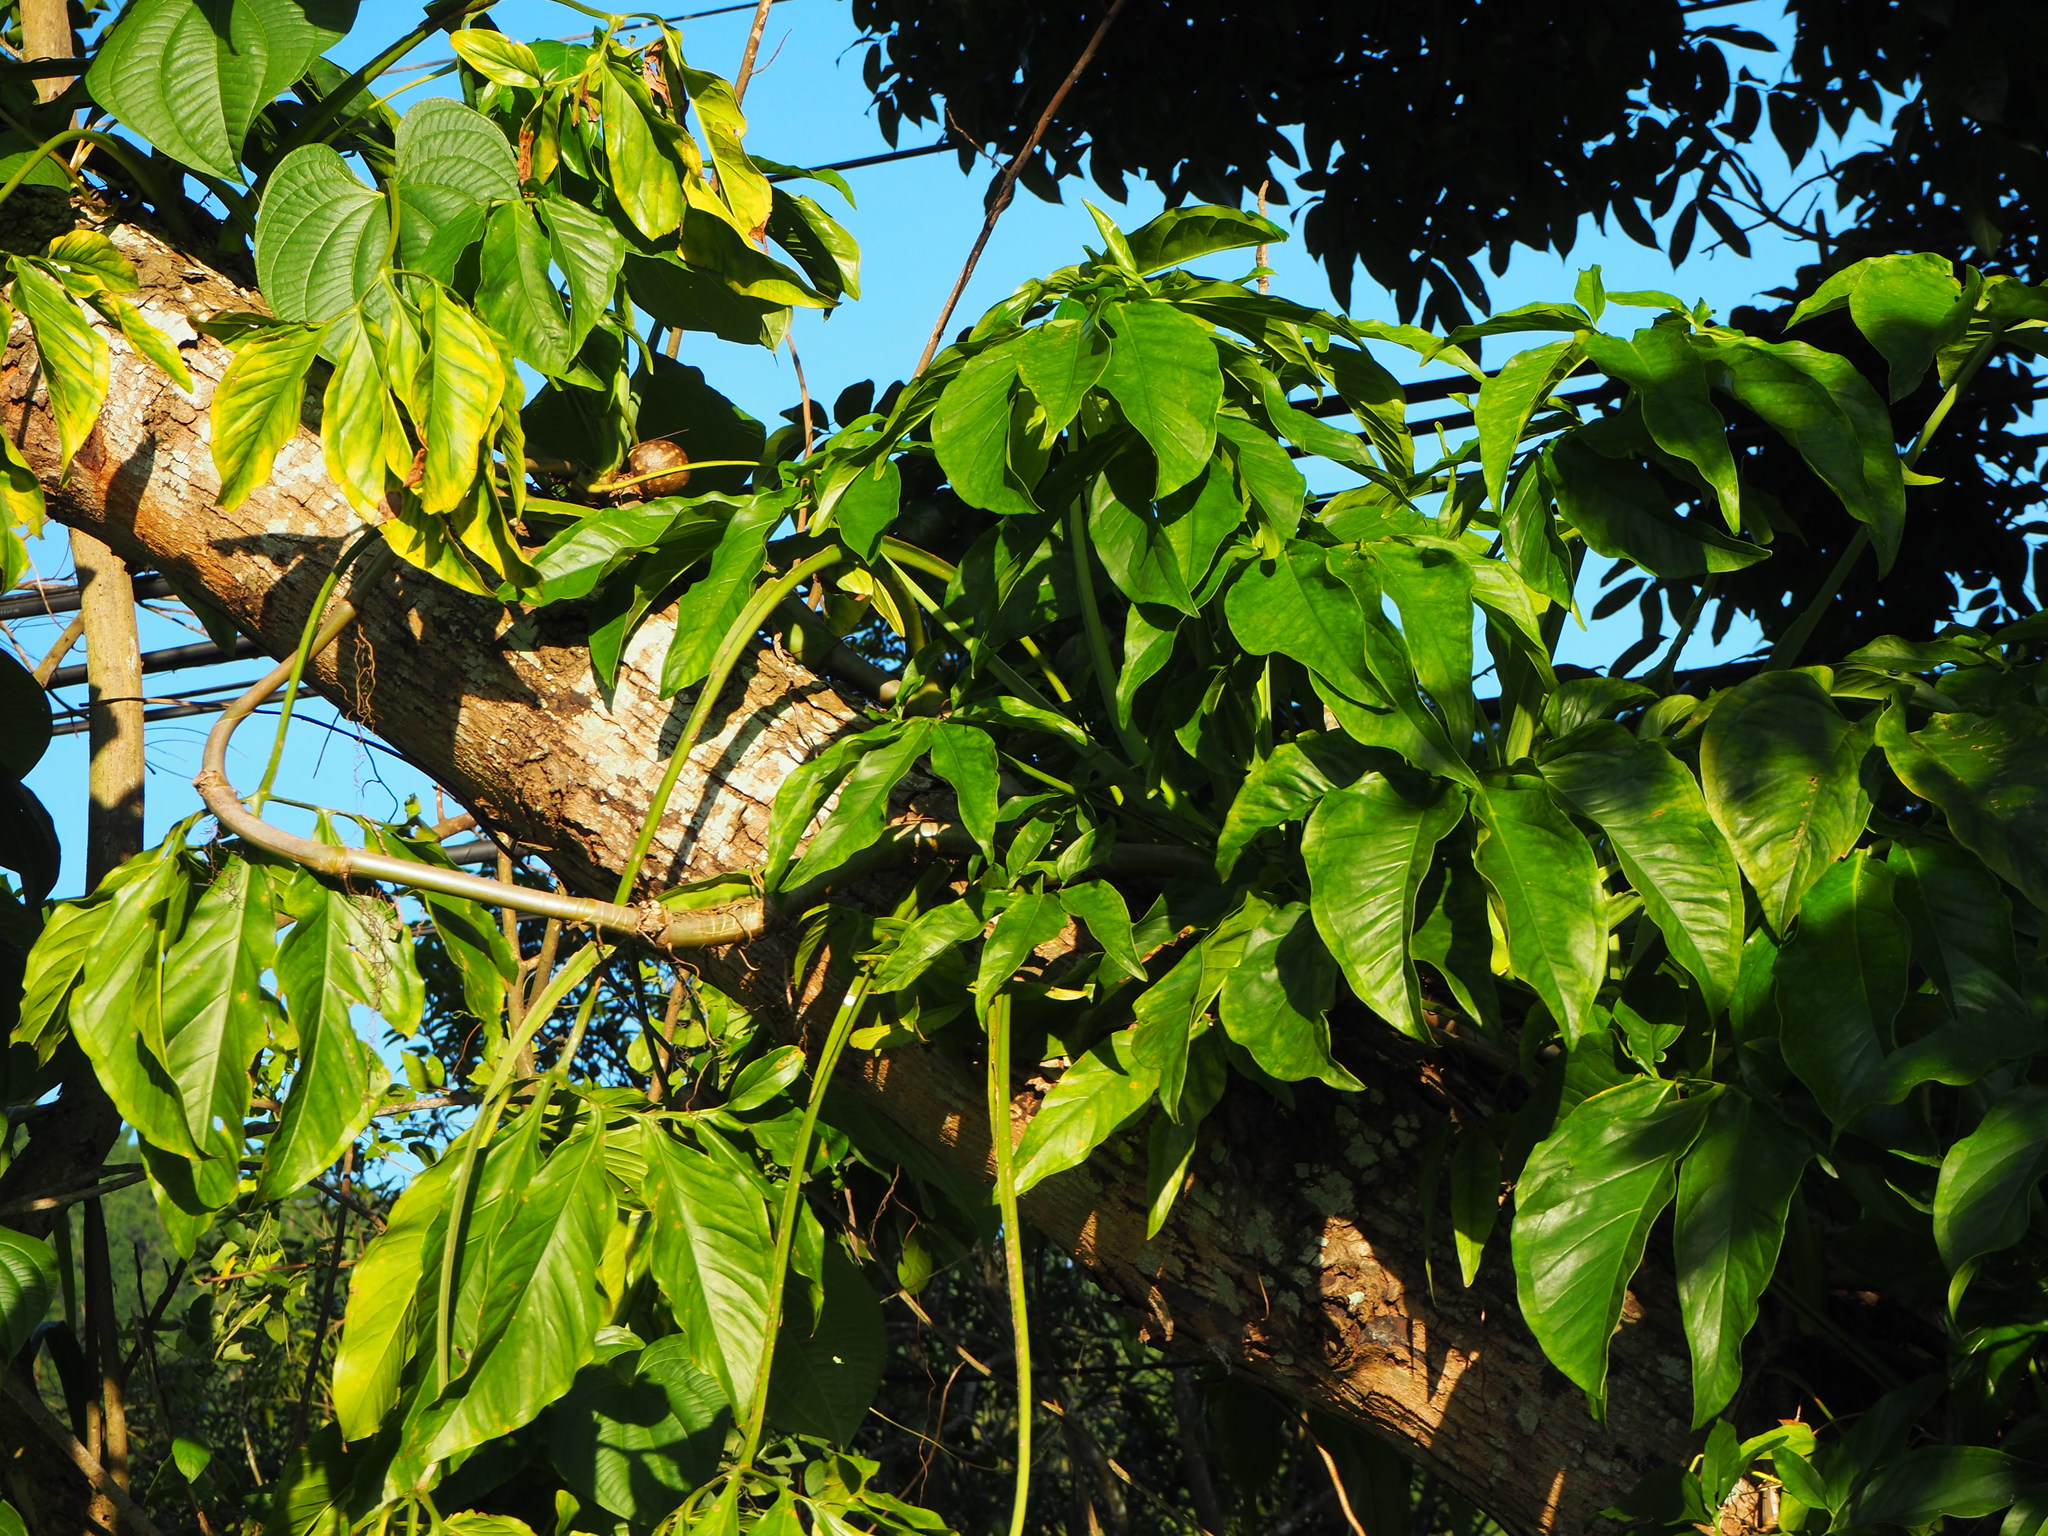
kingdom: Plantae
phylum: Tracheophyta
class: Liliopsida
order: Alismatales
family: Araceae
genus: Syngonium
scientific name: Syngonium podophyllum
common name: American evergreen
